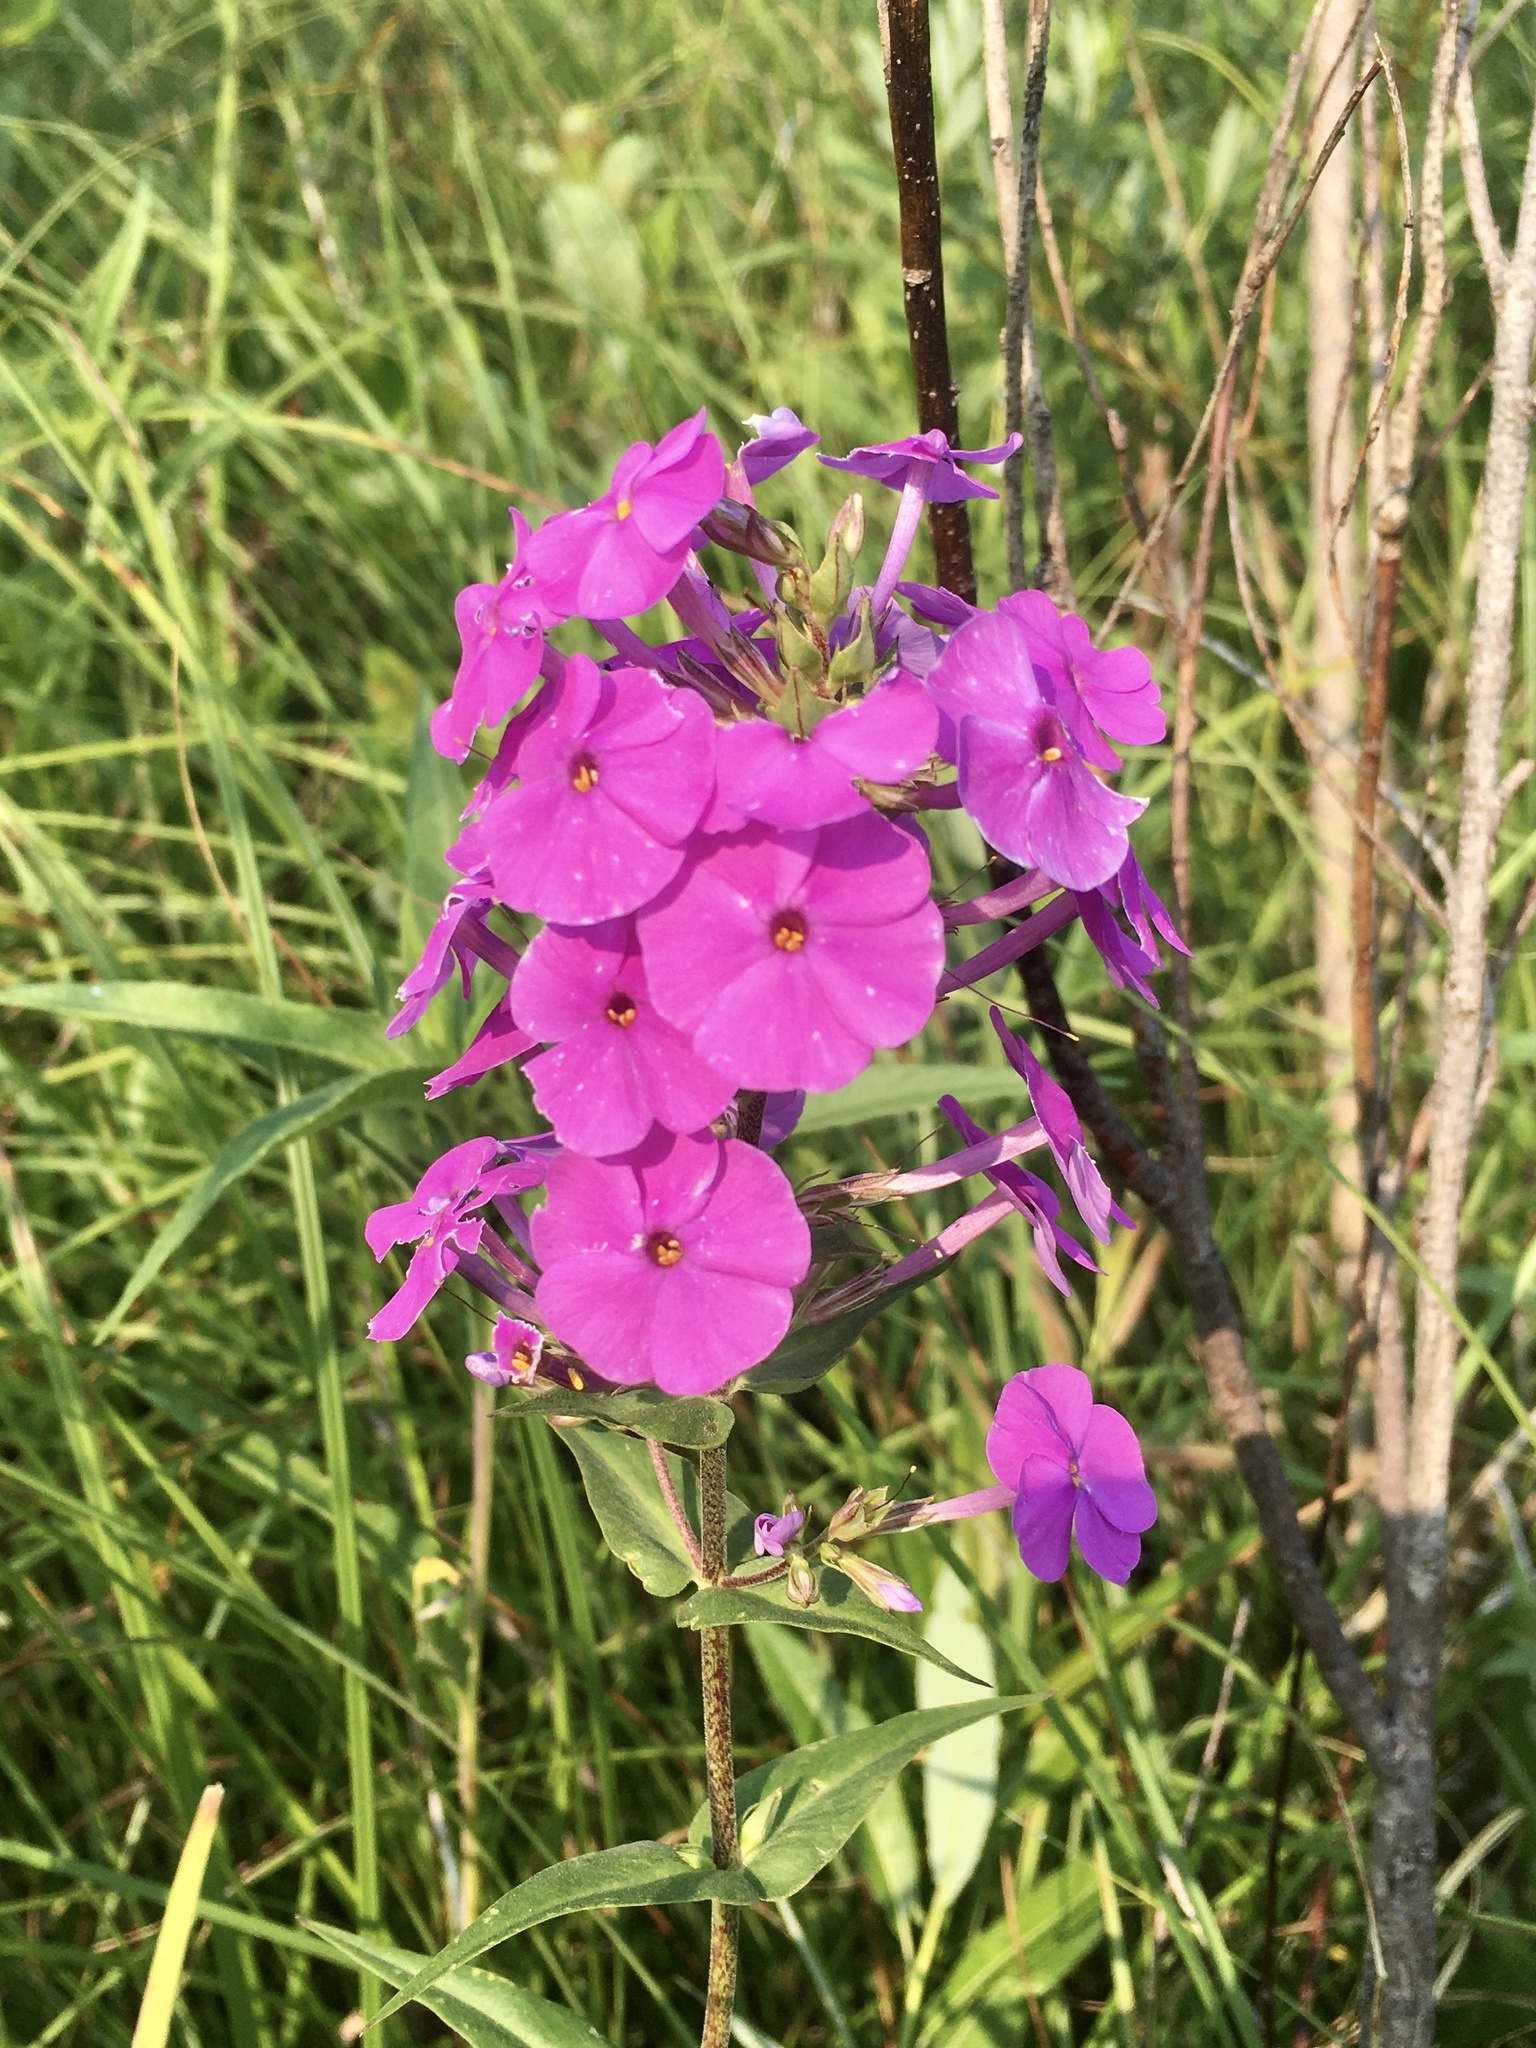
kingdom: Plantae
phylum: Tracheophyta
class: Magnoliopsida
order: Ericales
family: Polemoniaceae
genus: Phlox
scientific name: Phlox maculata
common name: Meadow phlox
